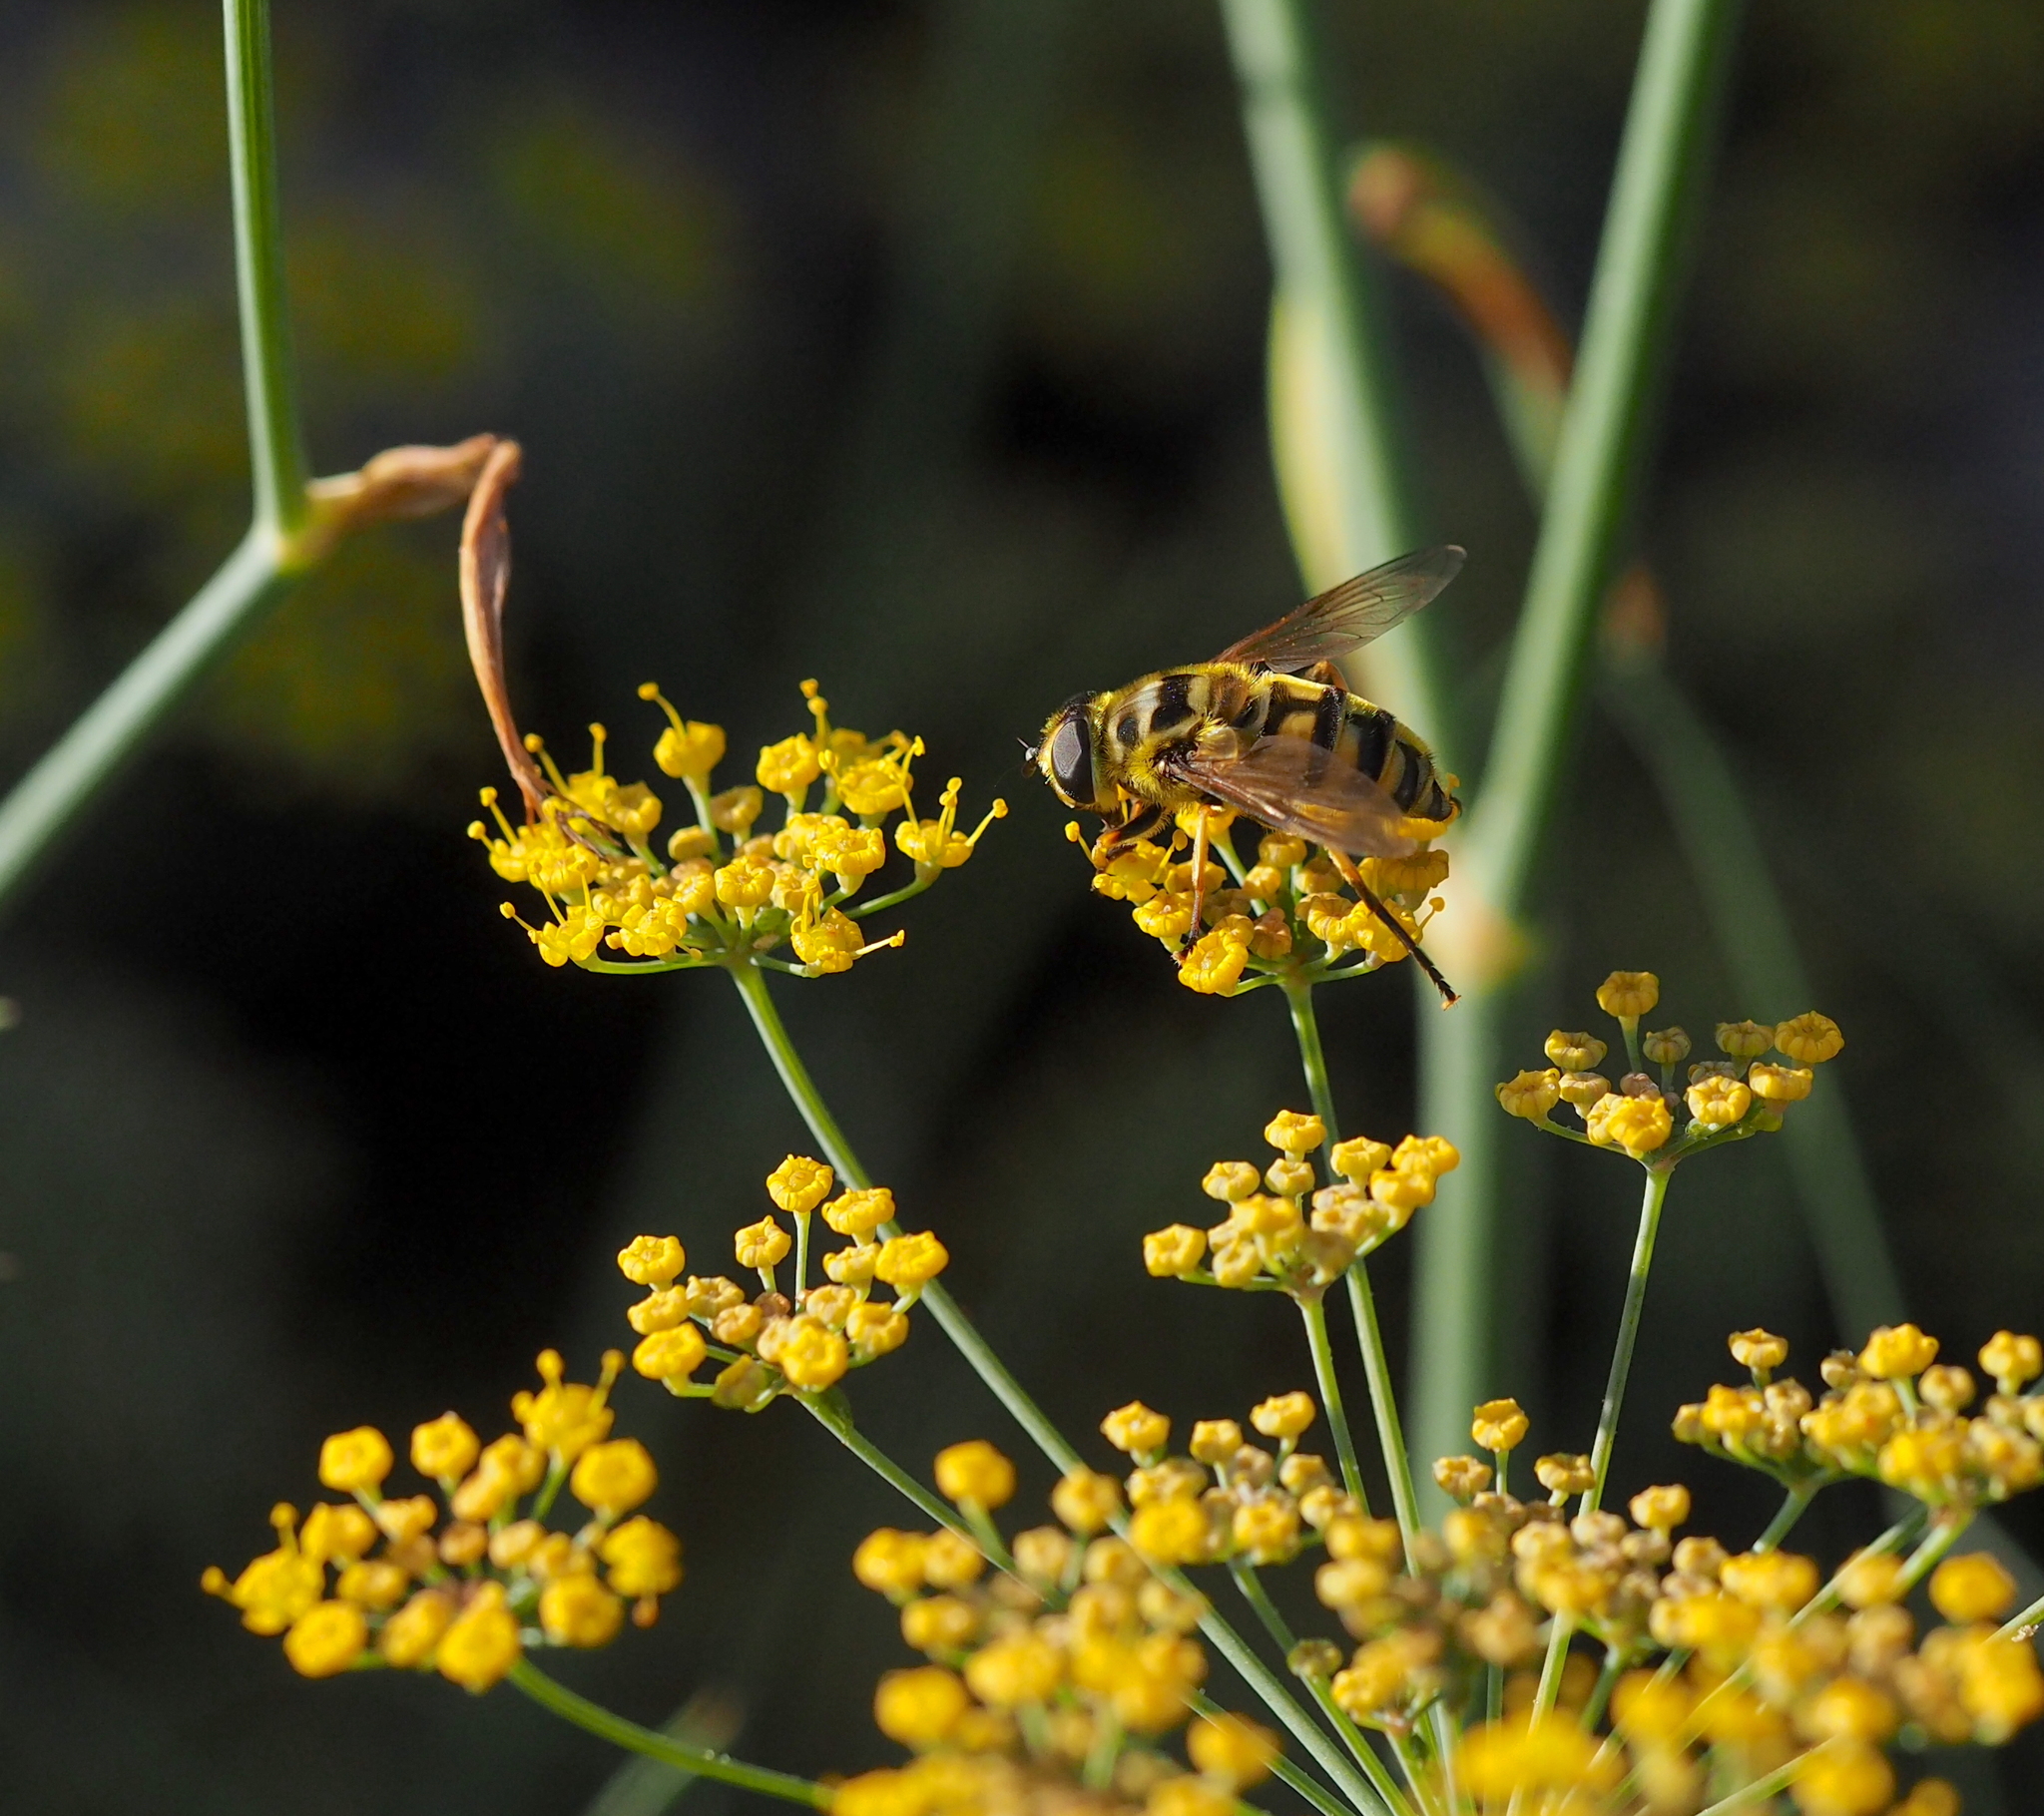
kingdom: Animalia
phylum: Arthropoda
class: Insecta
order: Diptera
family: Syrphidae
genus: Myathropa
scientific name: Myathropa florea
